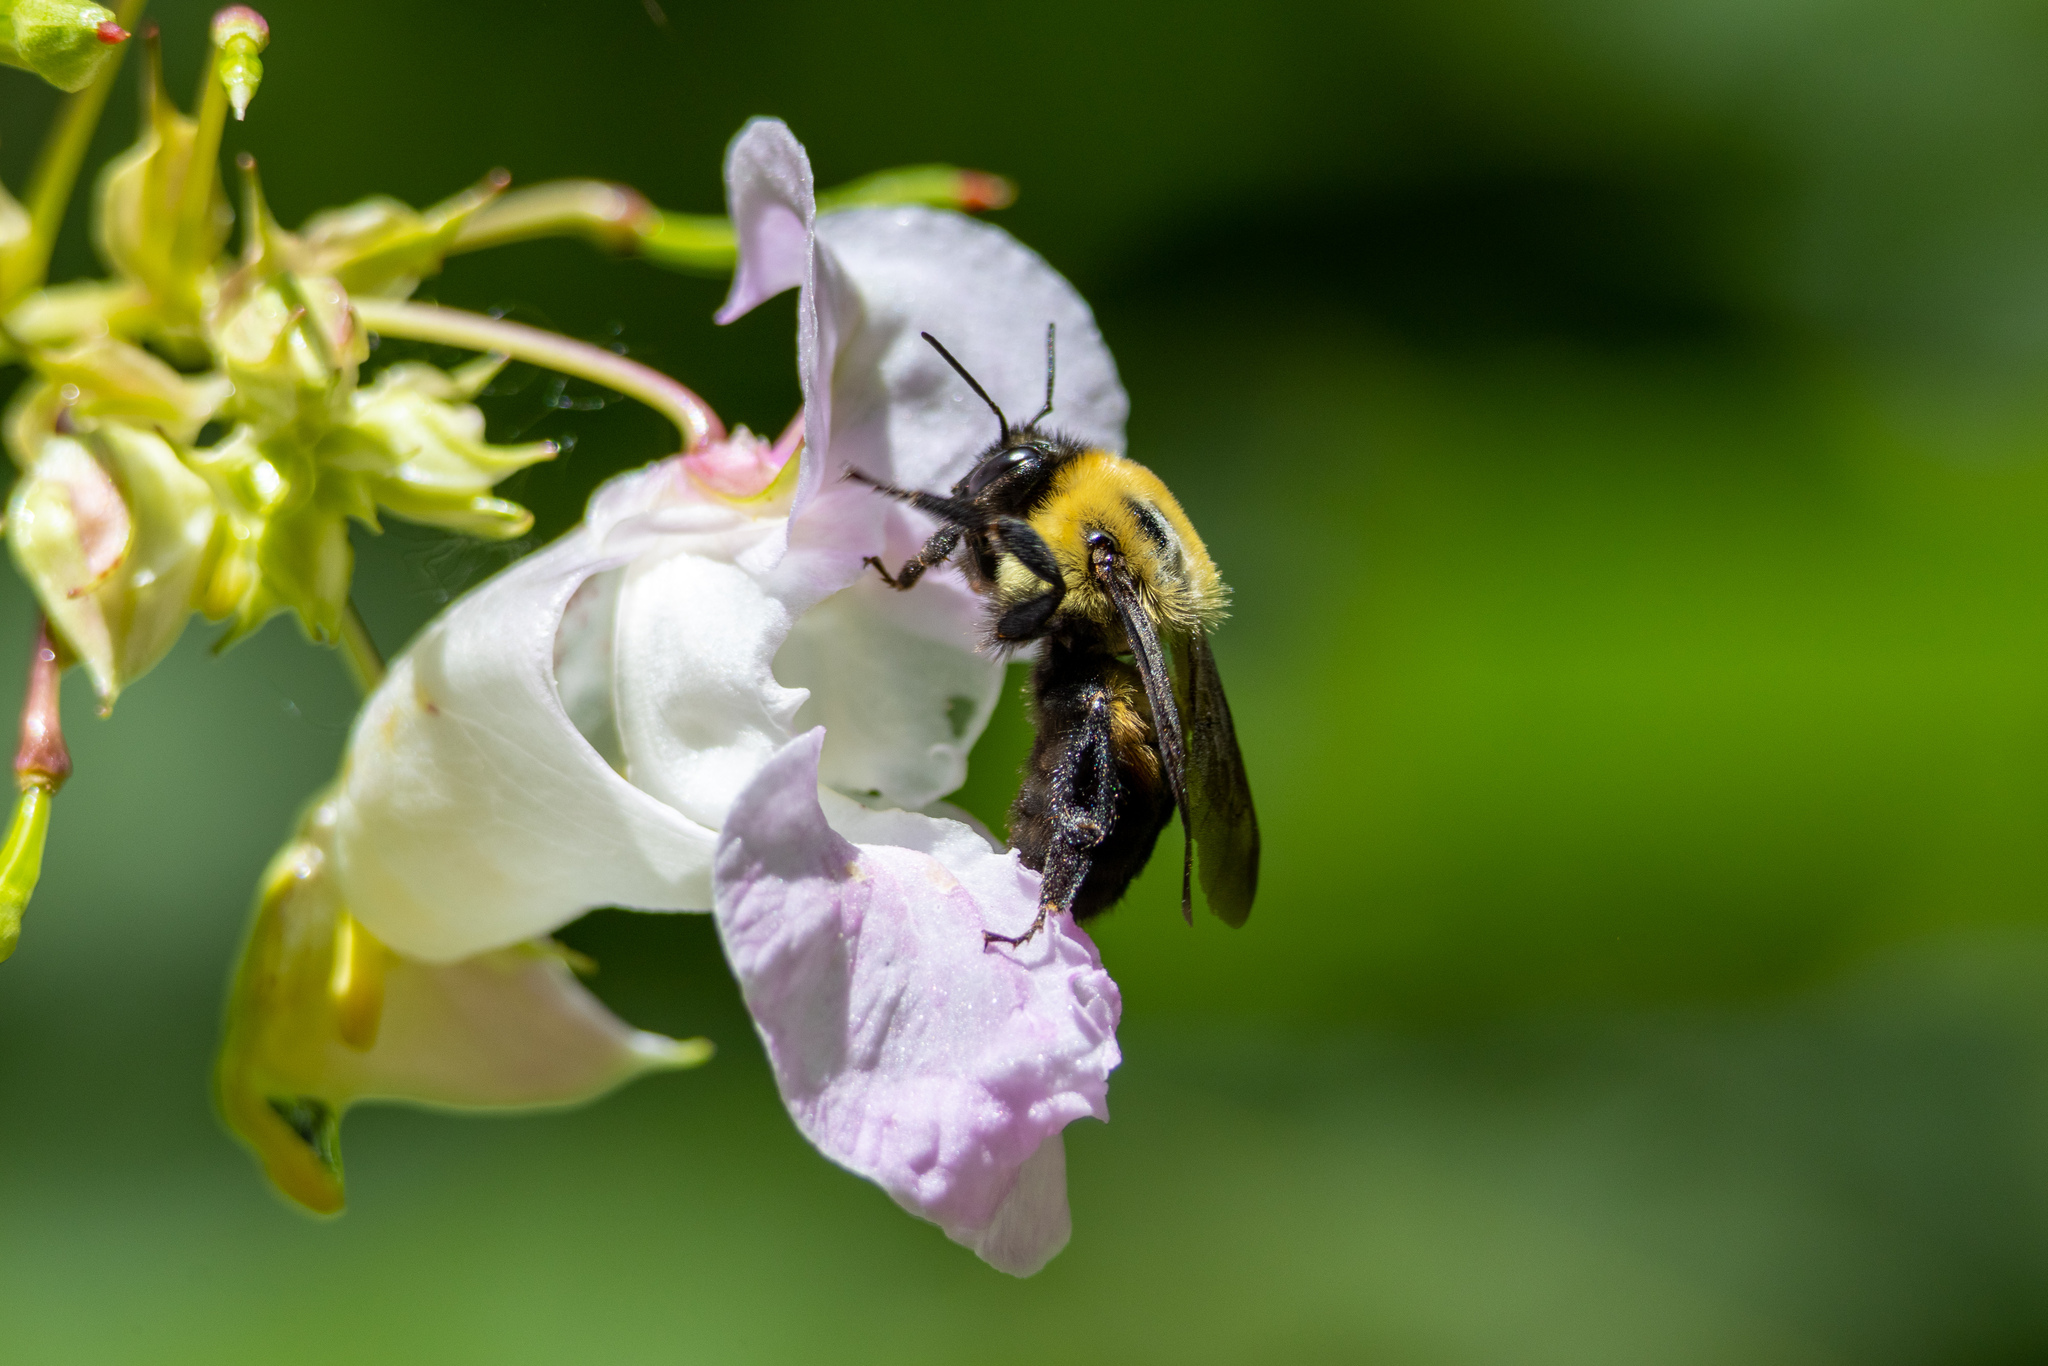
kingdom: Animalia
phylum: Arthropoda
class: Insecta
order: Hymenoptera
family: Apidae
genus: Bombus
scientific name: Bombus griseocollis
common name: Brown-belted bumble bee
